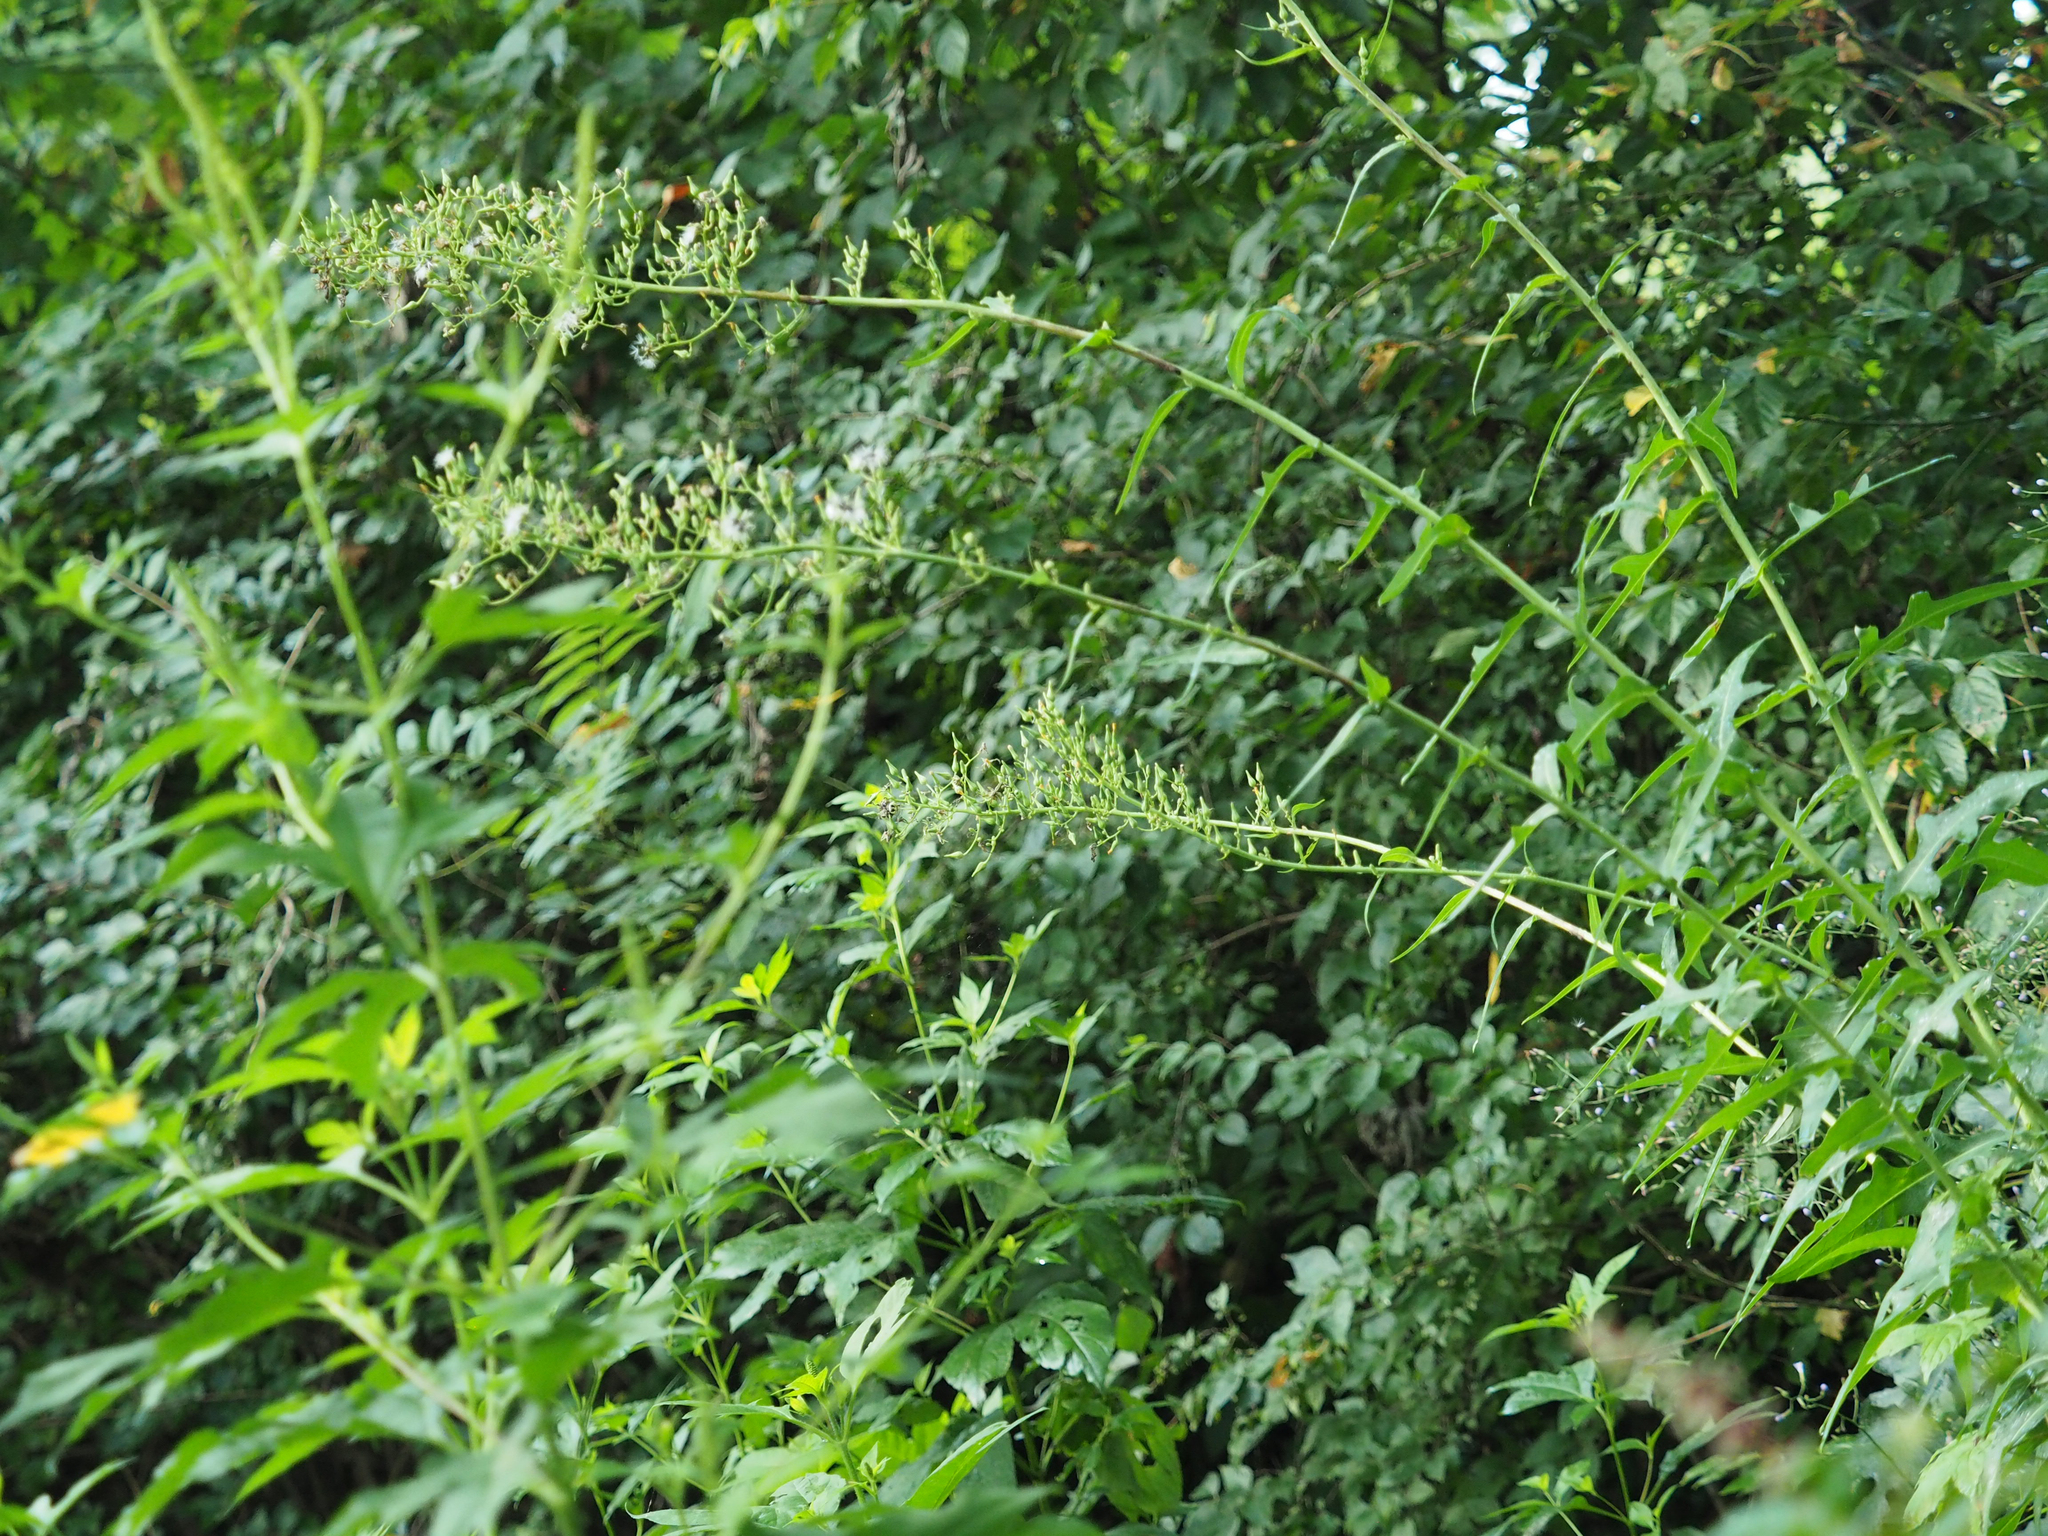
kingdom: Plantae
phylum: Tracheophyta
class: Magnoliopsida
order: Asterales
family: Asteraceae
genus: Lactuca
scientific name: Lactuca canadensis
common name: Canada lettuce
